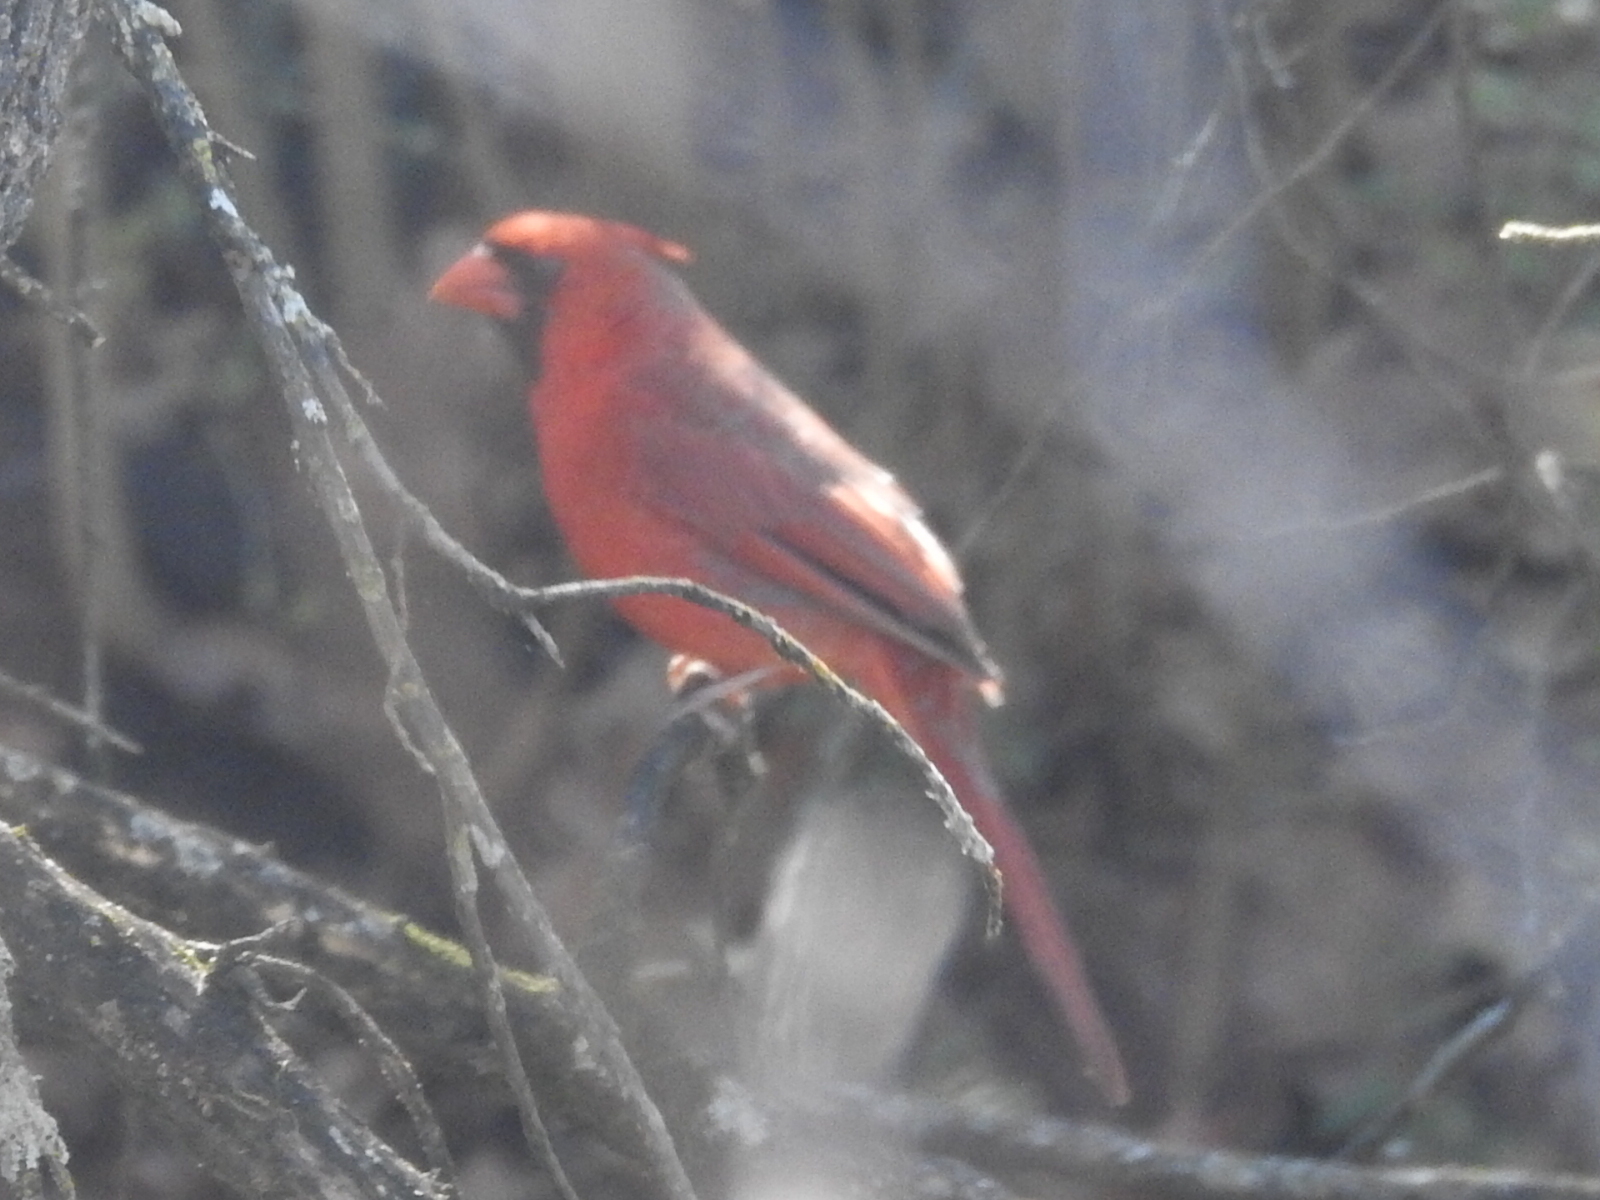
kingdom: Animalia
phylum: Chordata
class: Aves
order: Passeriformes
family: Cardinalidae
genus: Cardinalis
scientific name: Cardinalis cardinalis
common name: Northern cardinal
